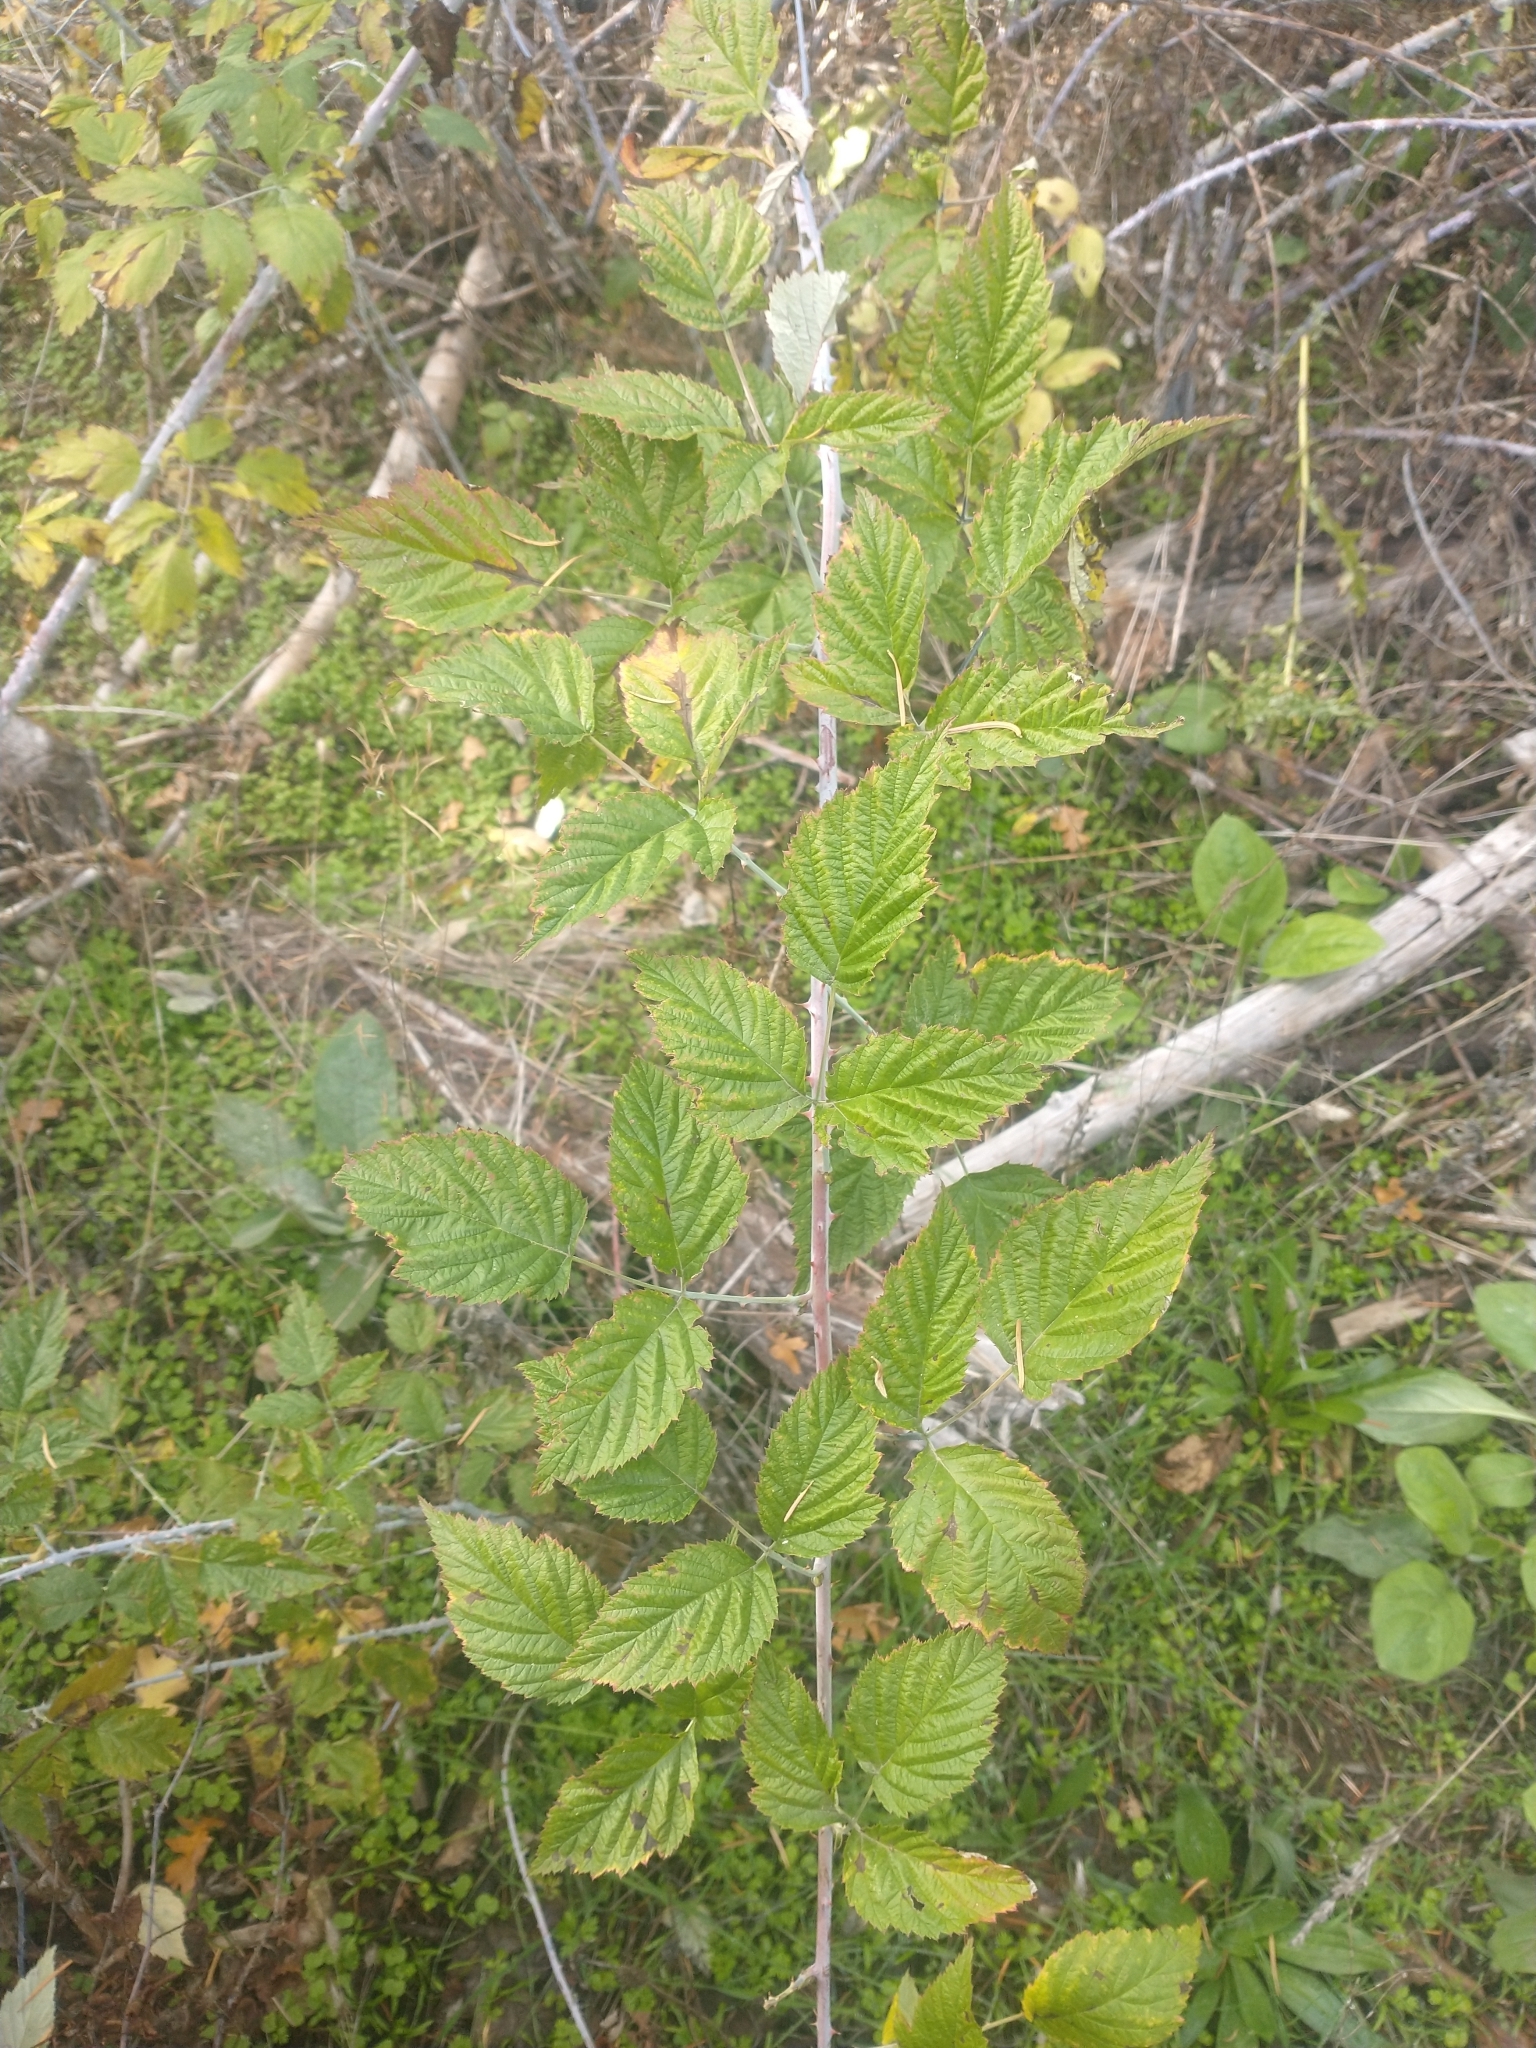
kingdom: Plantae
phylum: Tracheophyta
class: Magnoliopsida
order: Rosales
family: Rosaceae
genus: Rubus
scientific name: Rubus leucodermis
